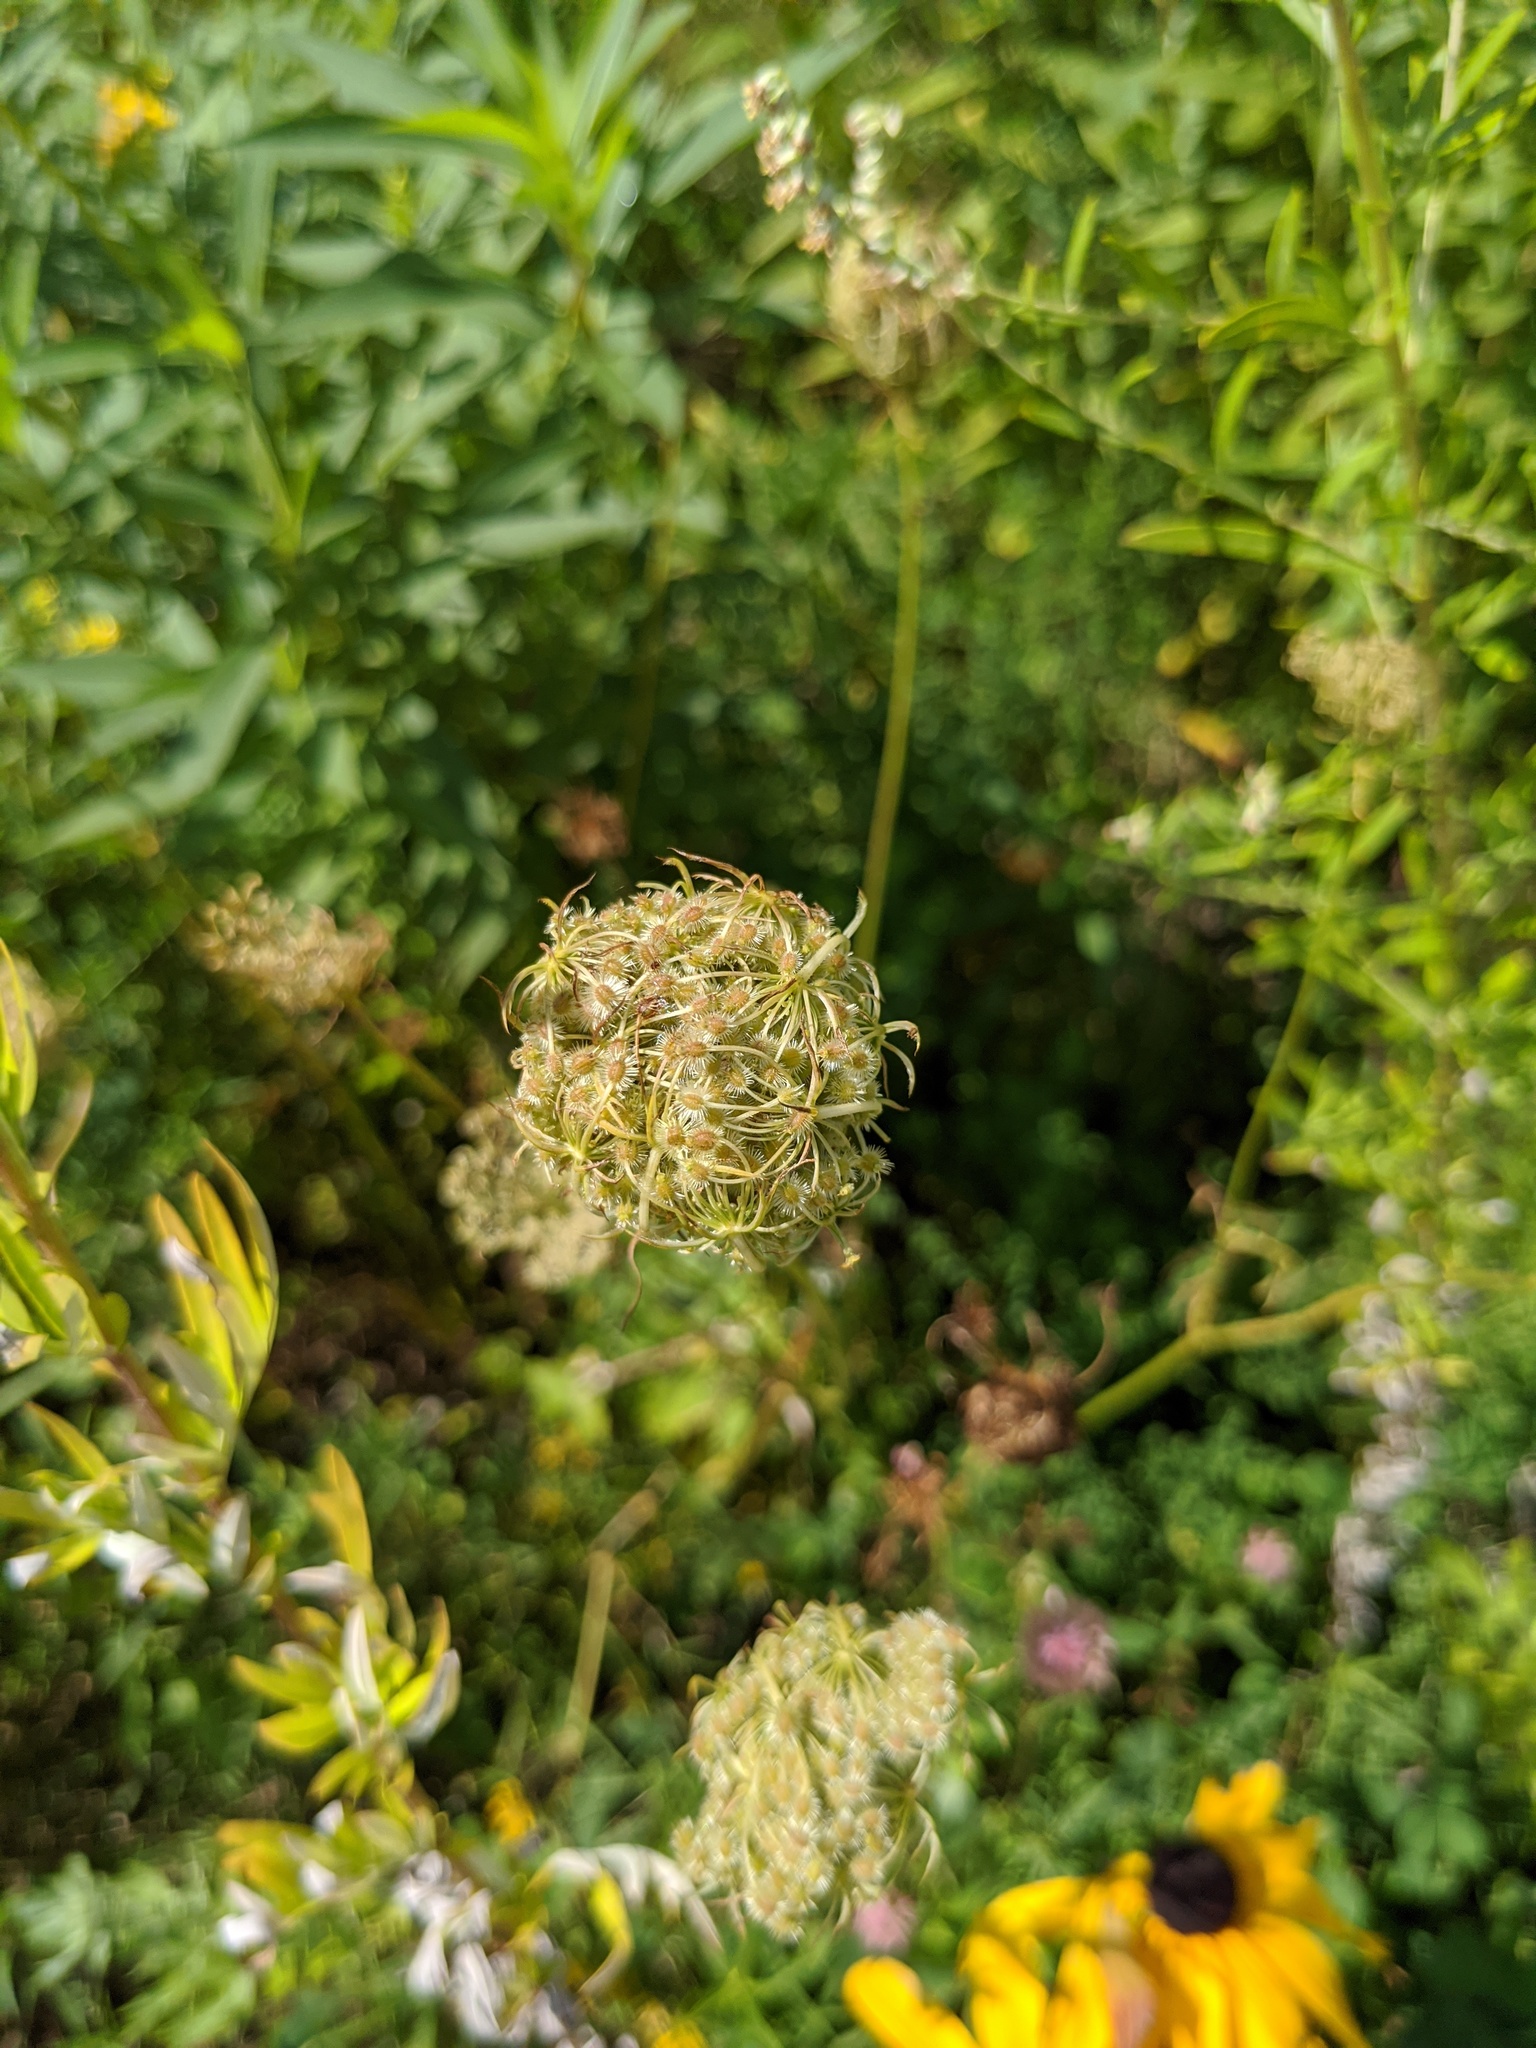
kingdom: Plantae
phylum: Tracheophyta
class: Magnoliopsida
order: Apiales
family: Apiaceae
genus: Daucus
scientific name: Daucus carota
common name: Wild carrot
